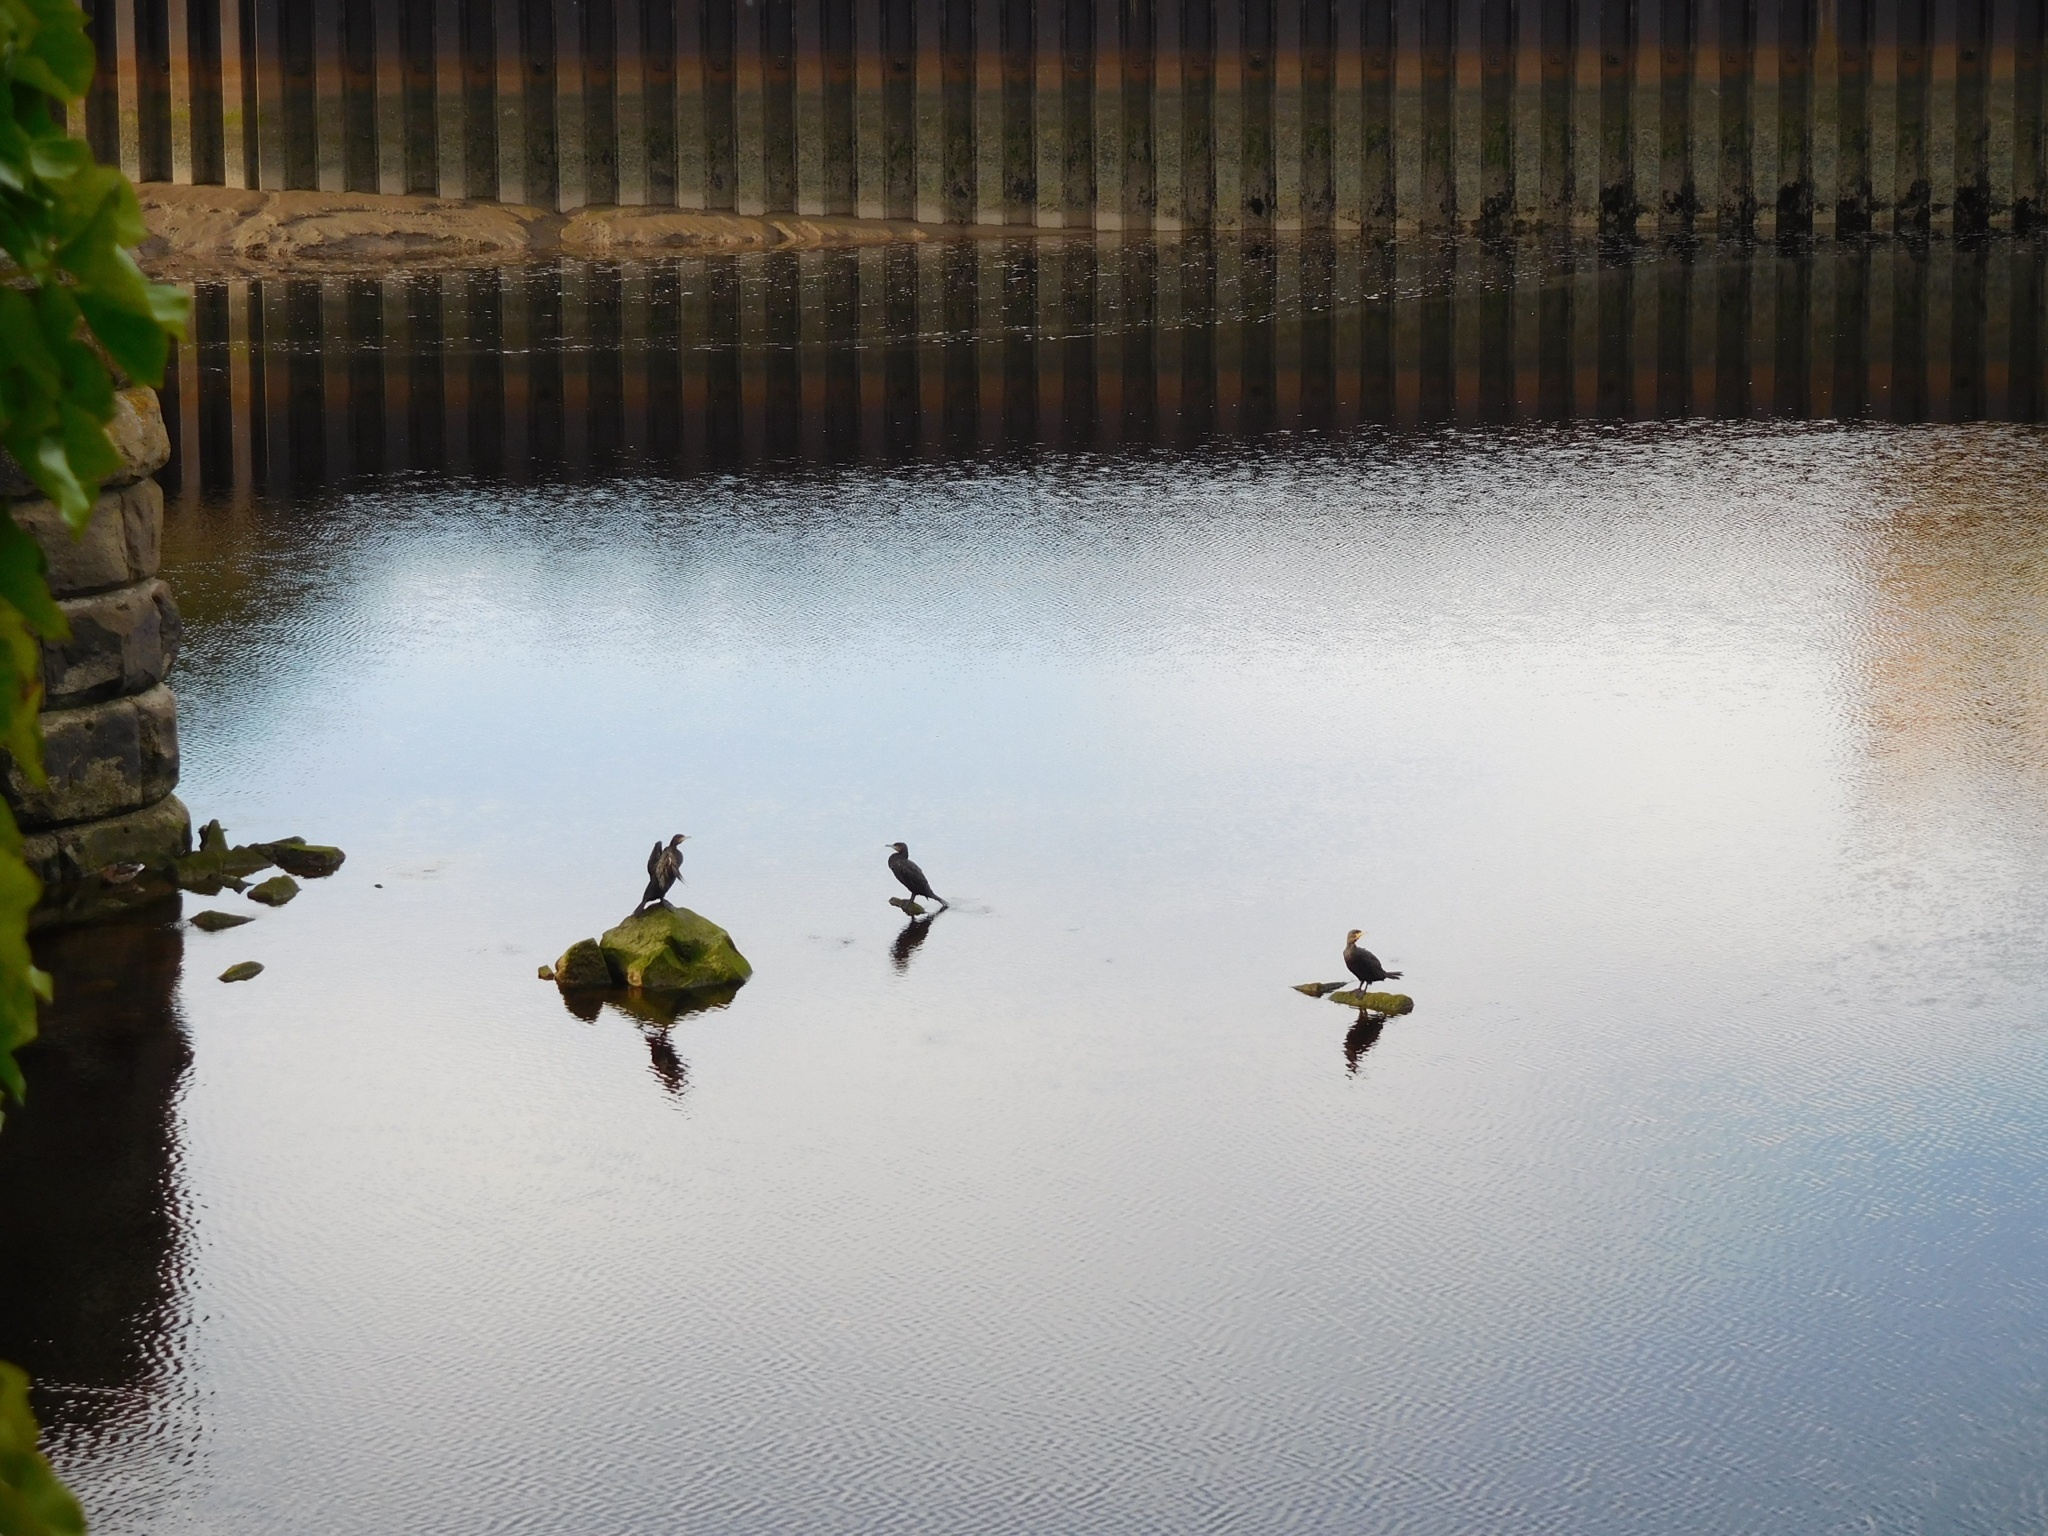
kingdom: Animalia
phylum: Chordata
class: Aves
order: Suliformes
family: Phalacrocoracidae
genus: Phalacrocorax
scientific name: Phalacrocorax carbo
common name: Great cormorant
